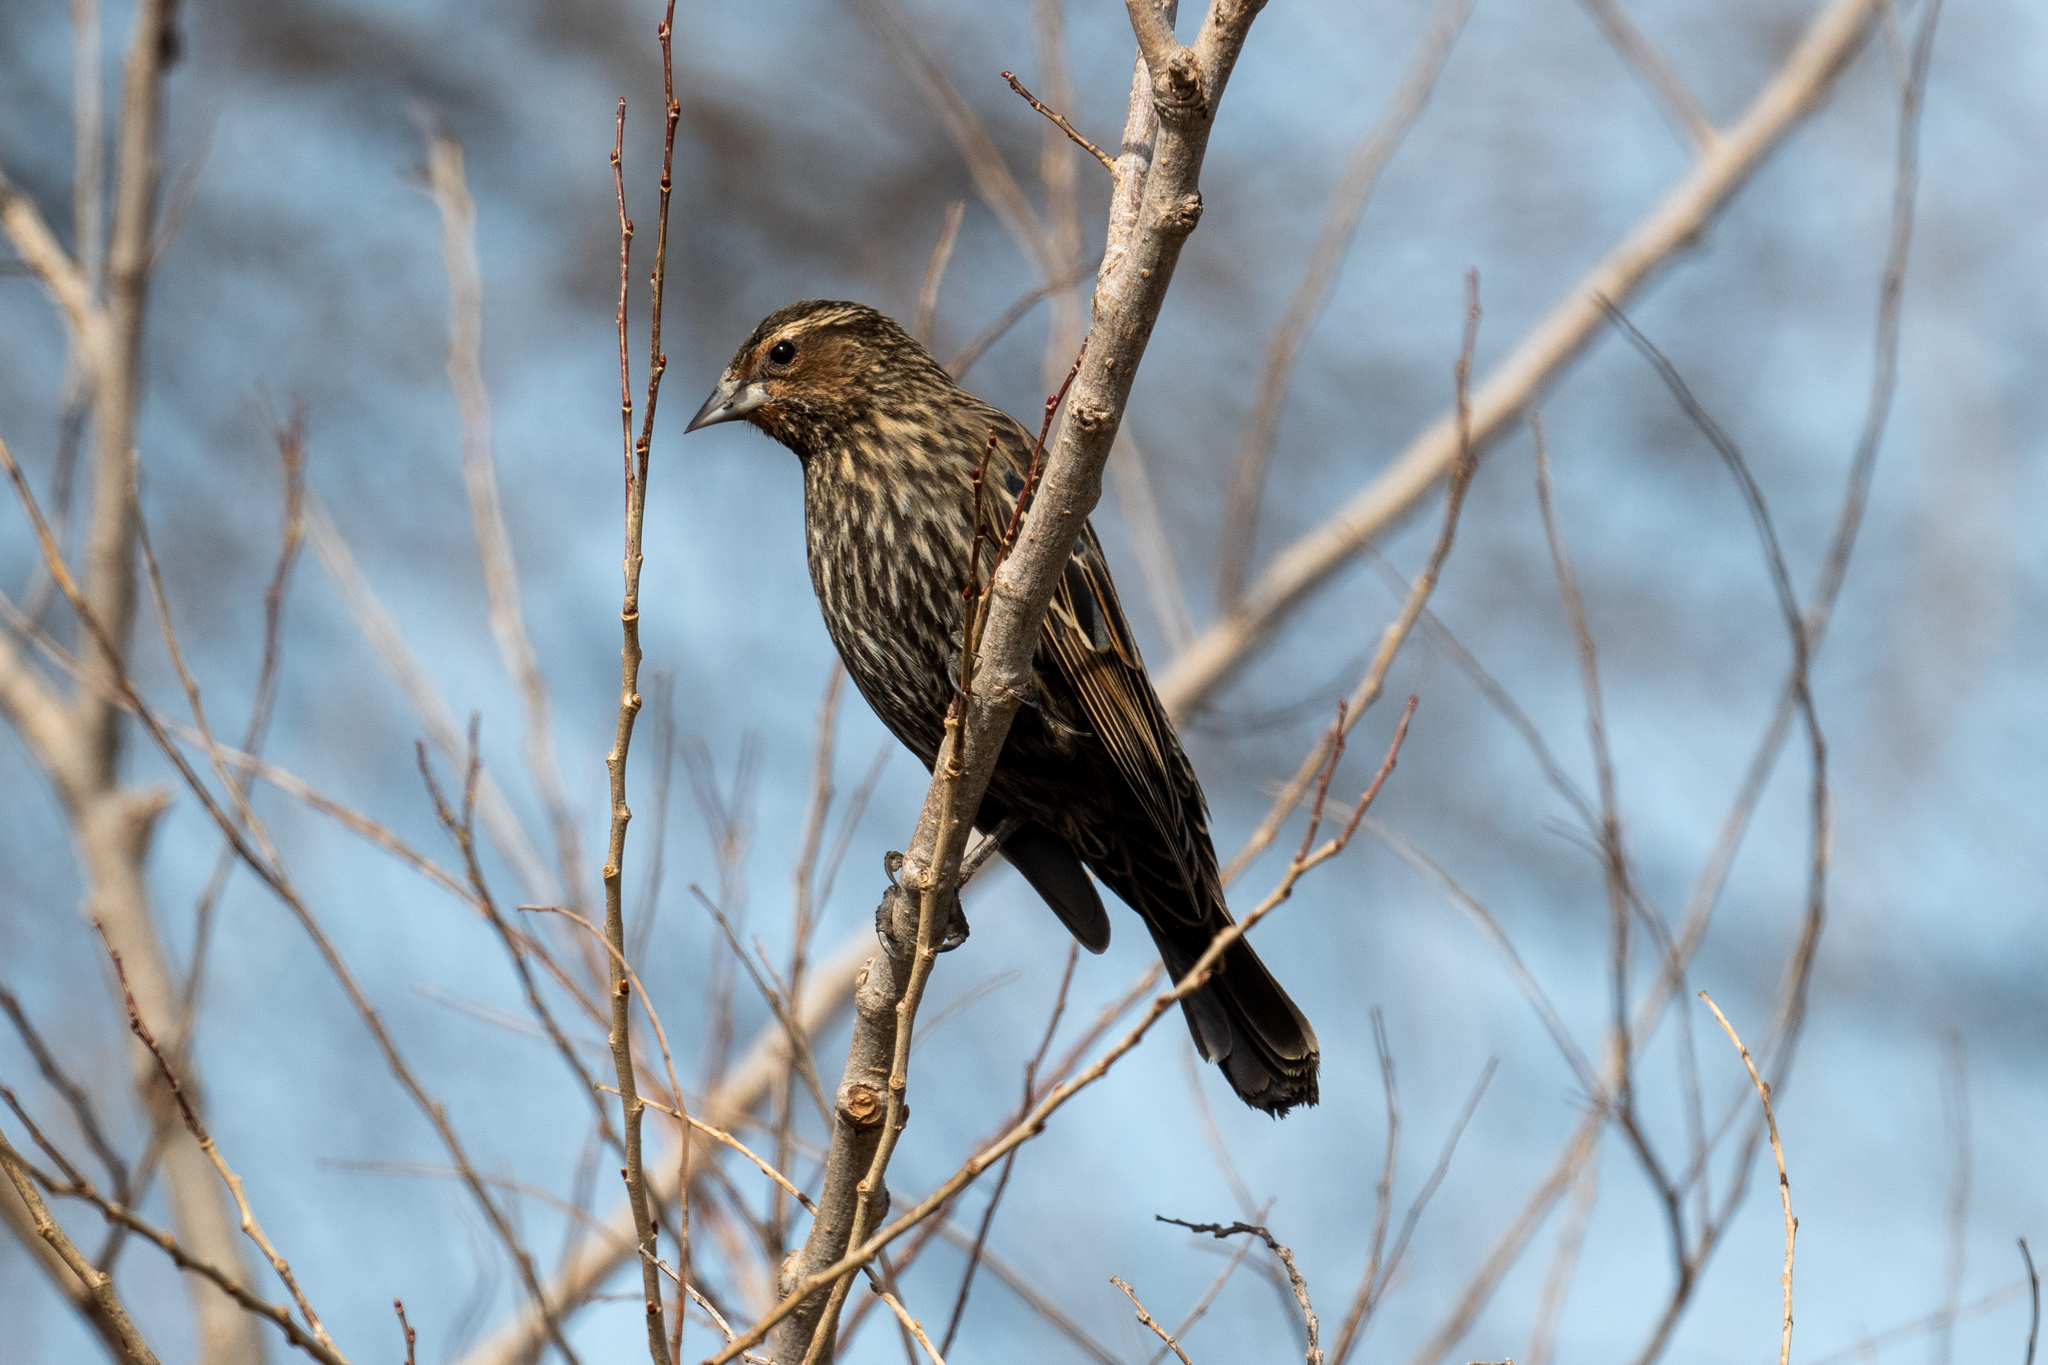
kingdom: Animalia
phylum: Chordata
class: Aves
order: Passeriformes
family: Icteridae
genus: Agelaius
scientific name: Agelaius phoeniceus
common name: Red-winged blackbird
